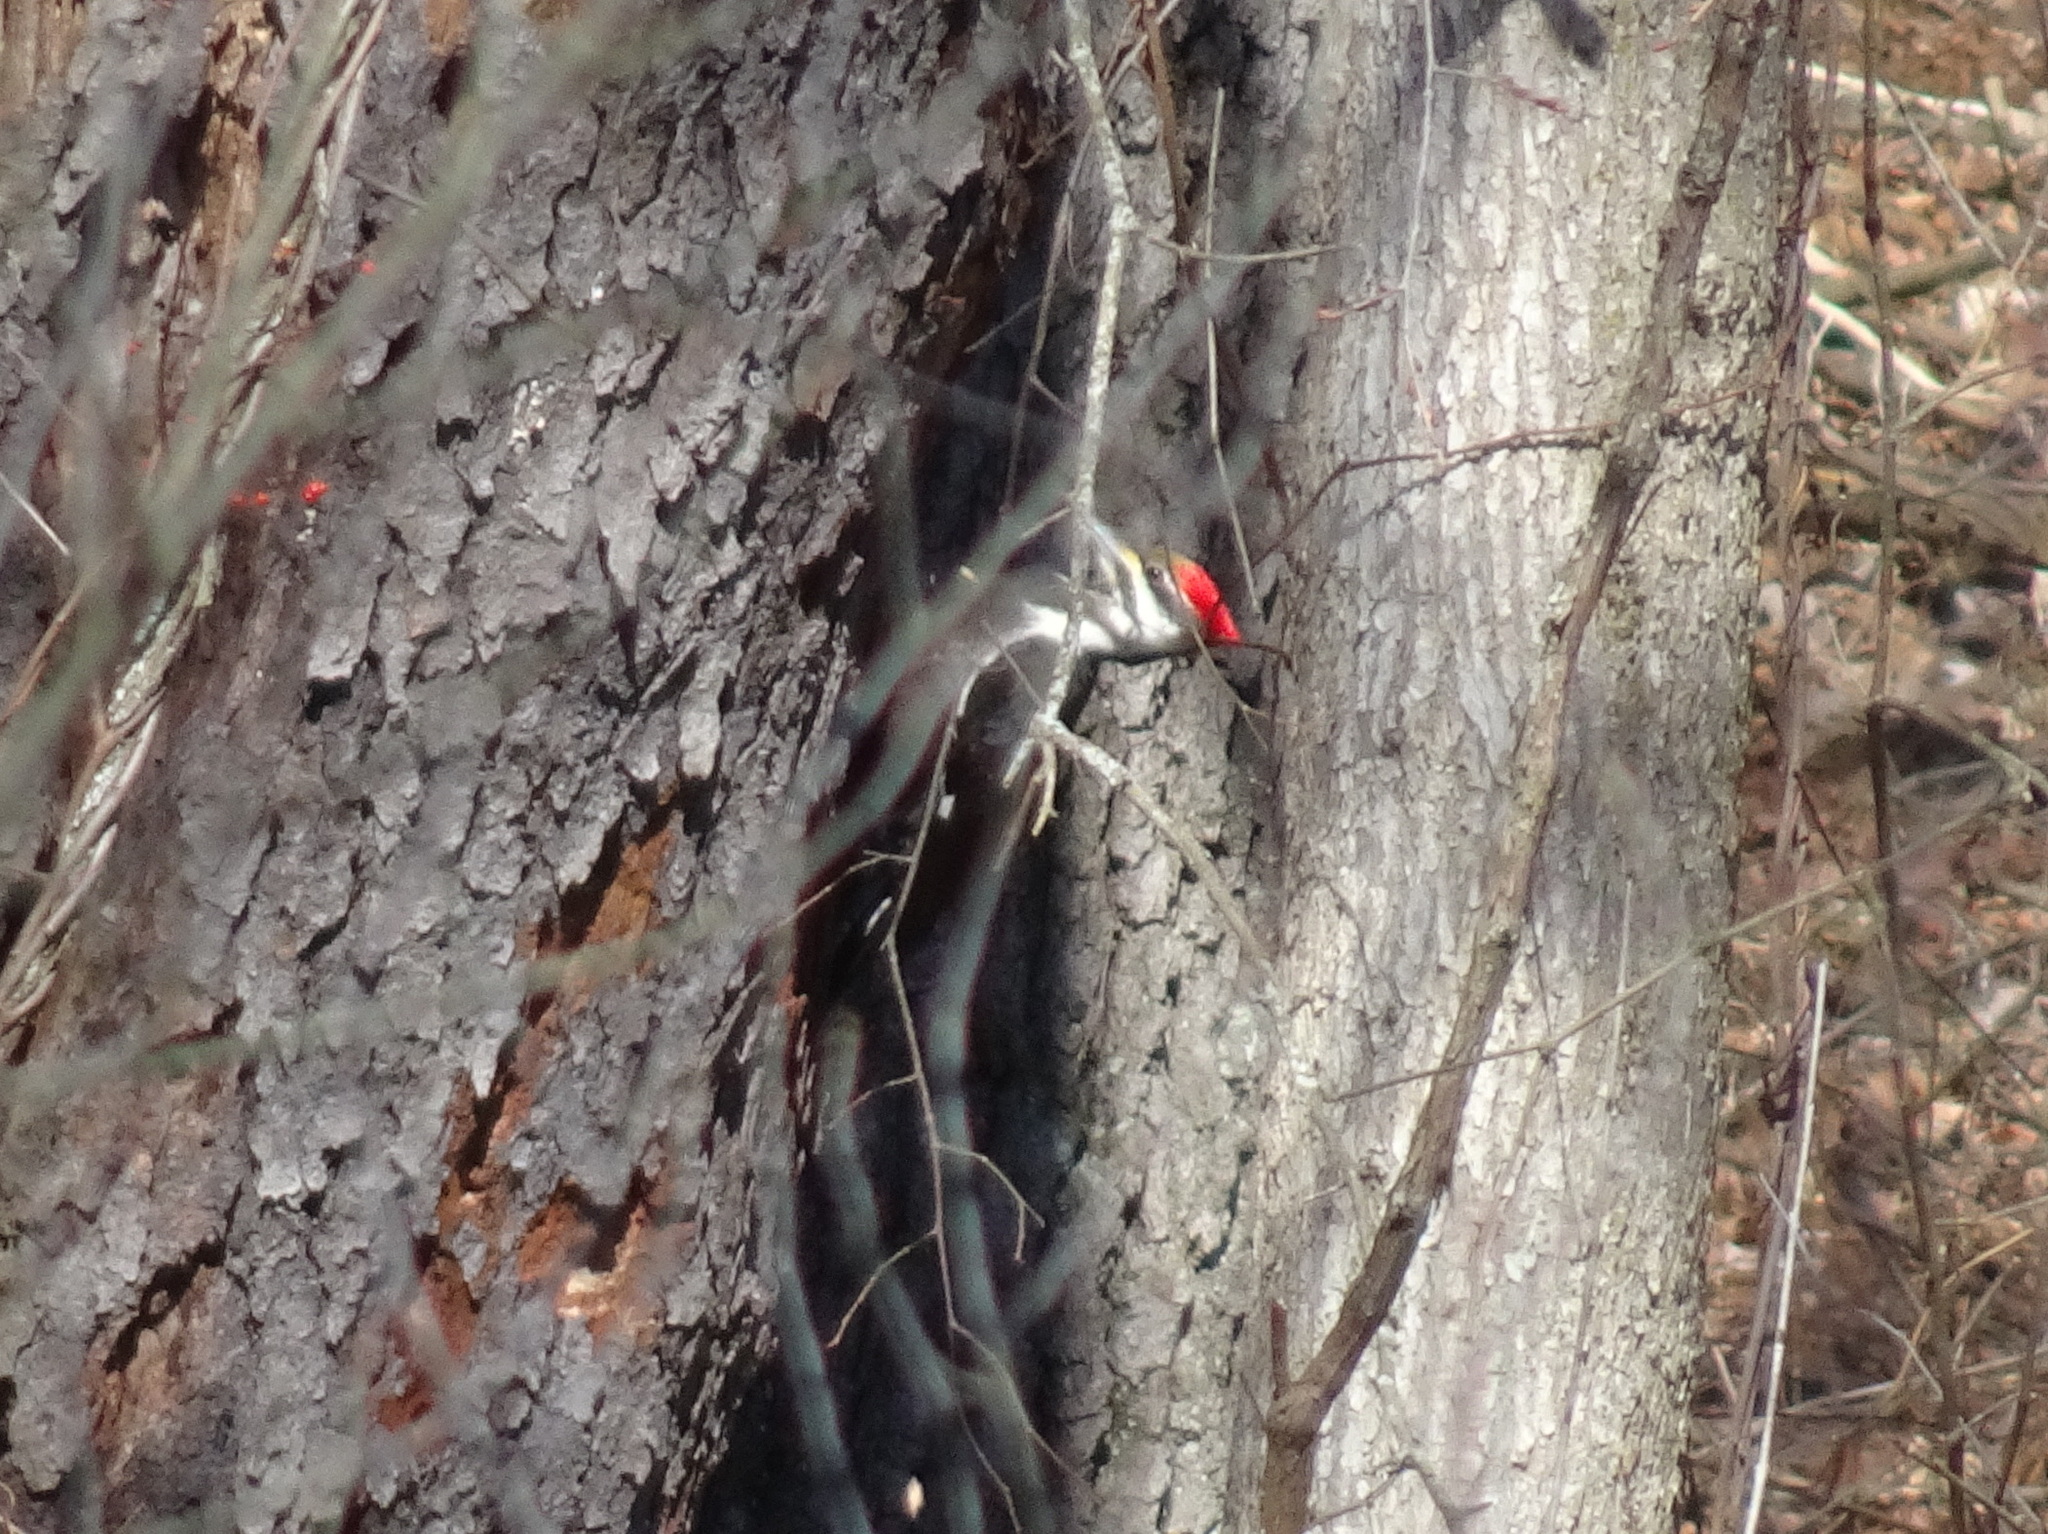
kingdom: Animalia
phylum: Chordata
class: Aves
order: Piciformes
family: Picidae
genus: Dryocopus
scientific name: Dryocopus pileatus
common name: Pileated woodpecker
